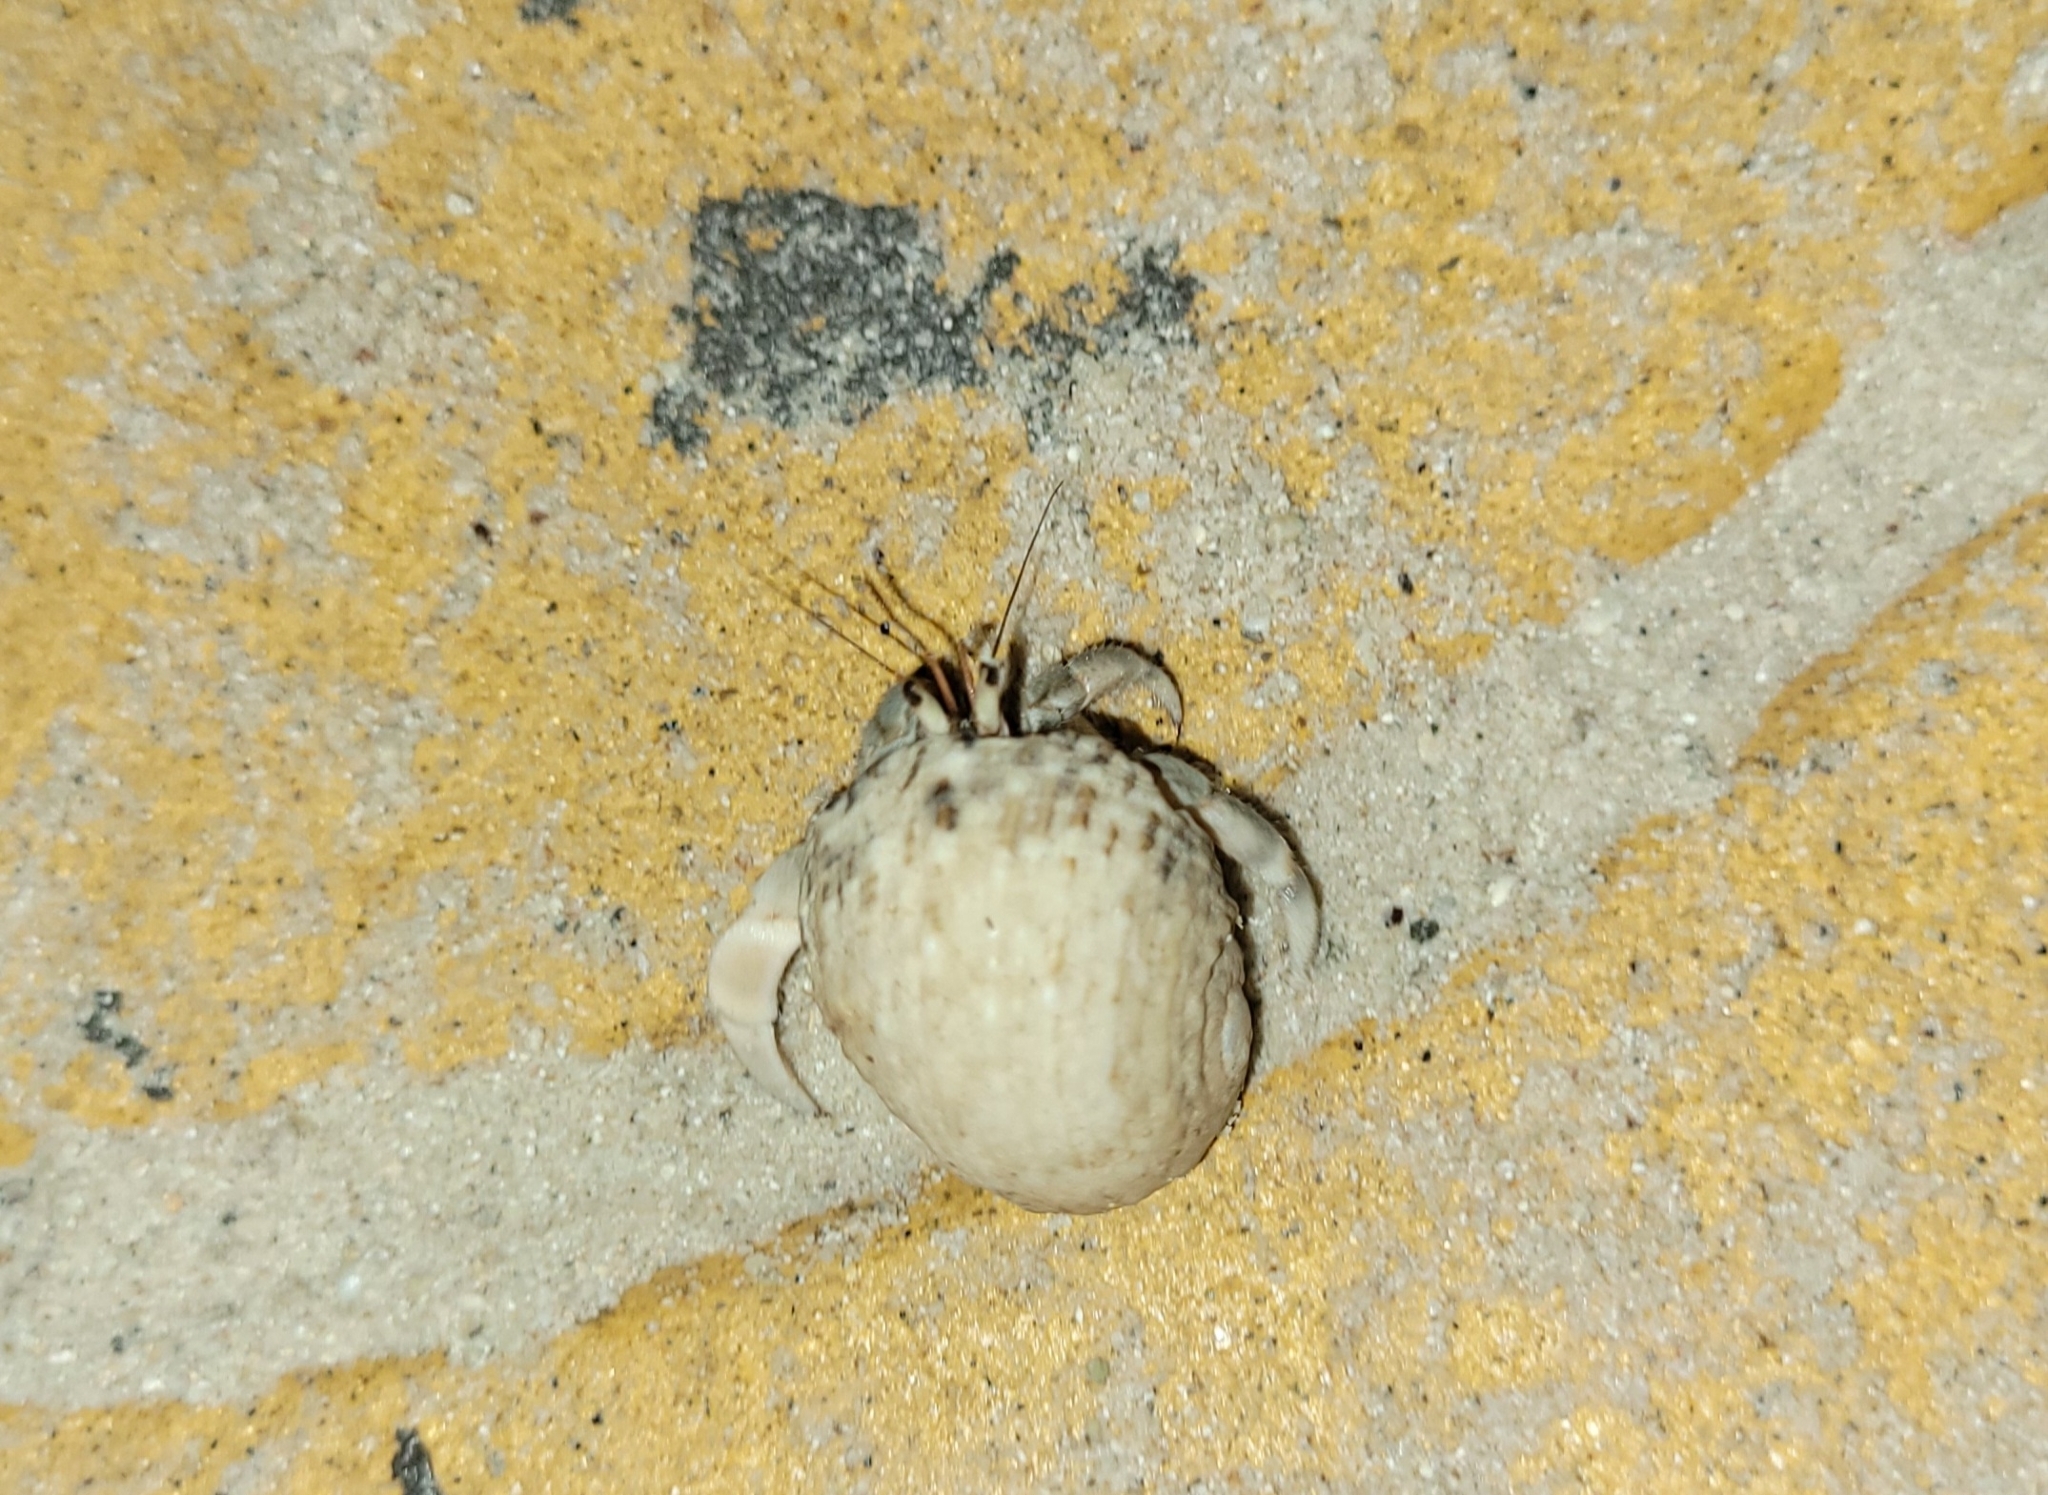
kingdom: Animalia
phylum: Arthropoda
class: Malacostraca
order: Decapoda
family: Coenobitidae
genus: Coenobita
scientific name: Coenobita rugosus
